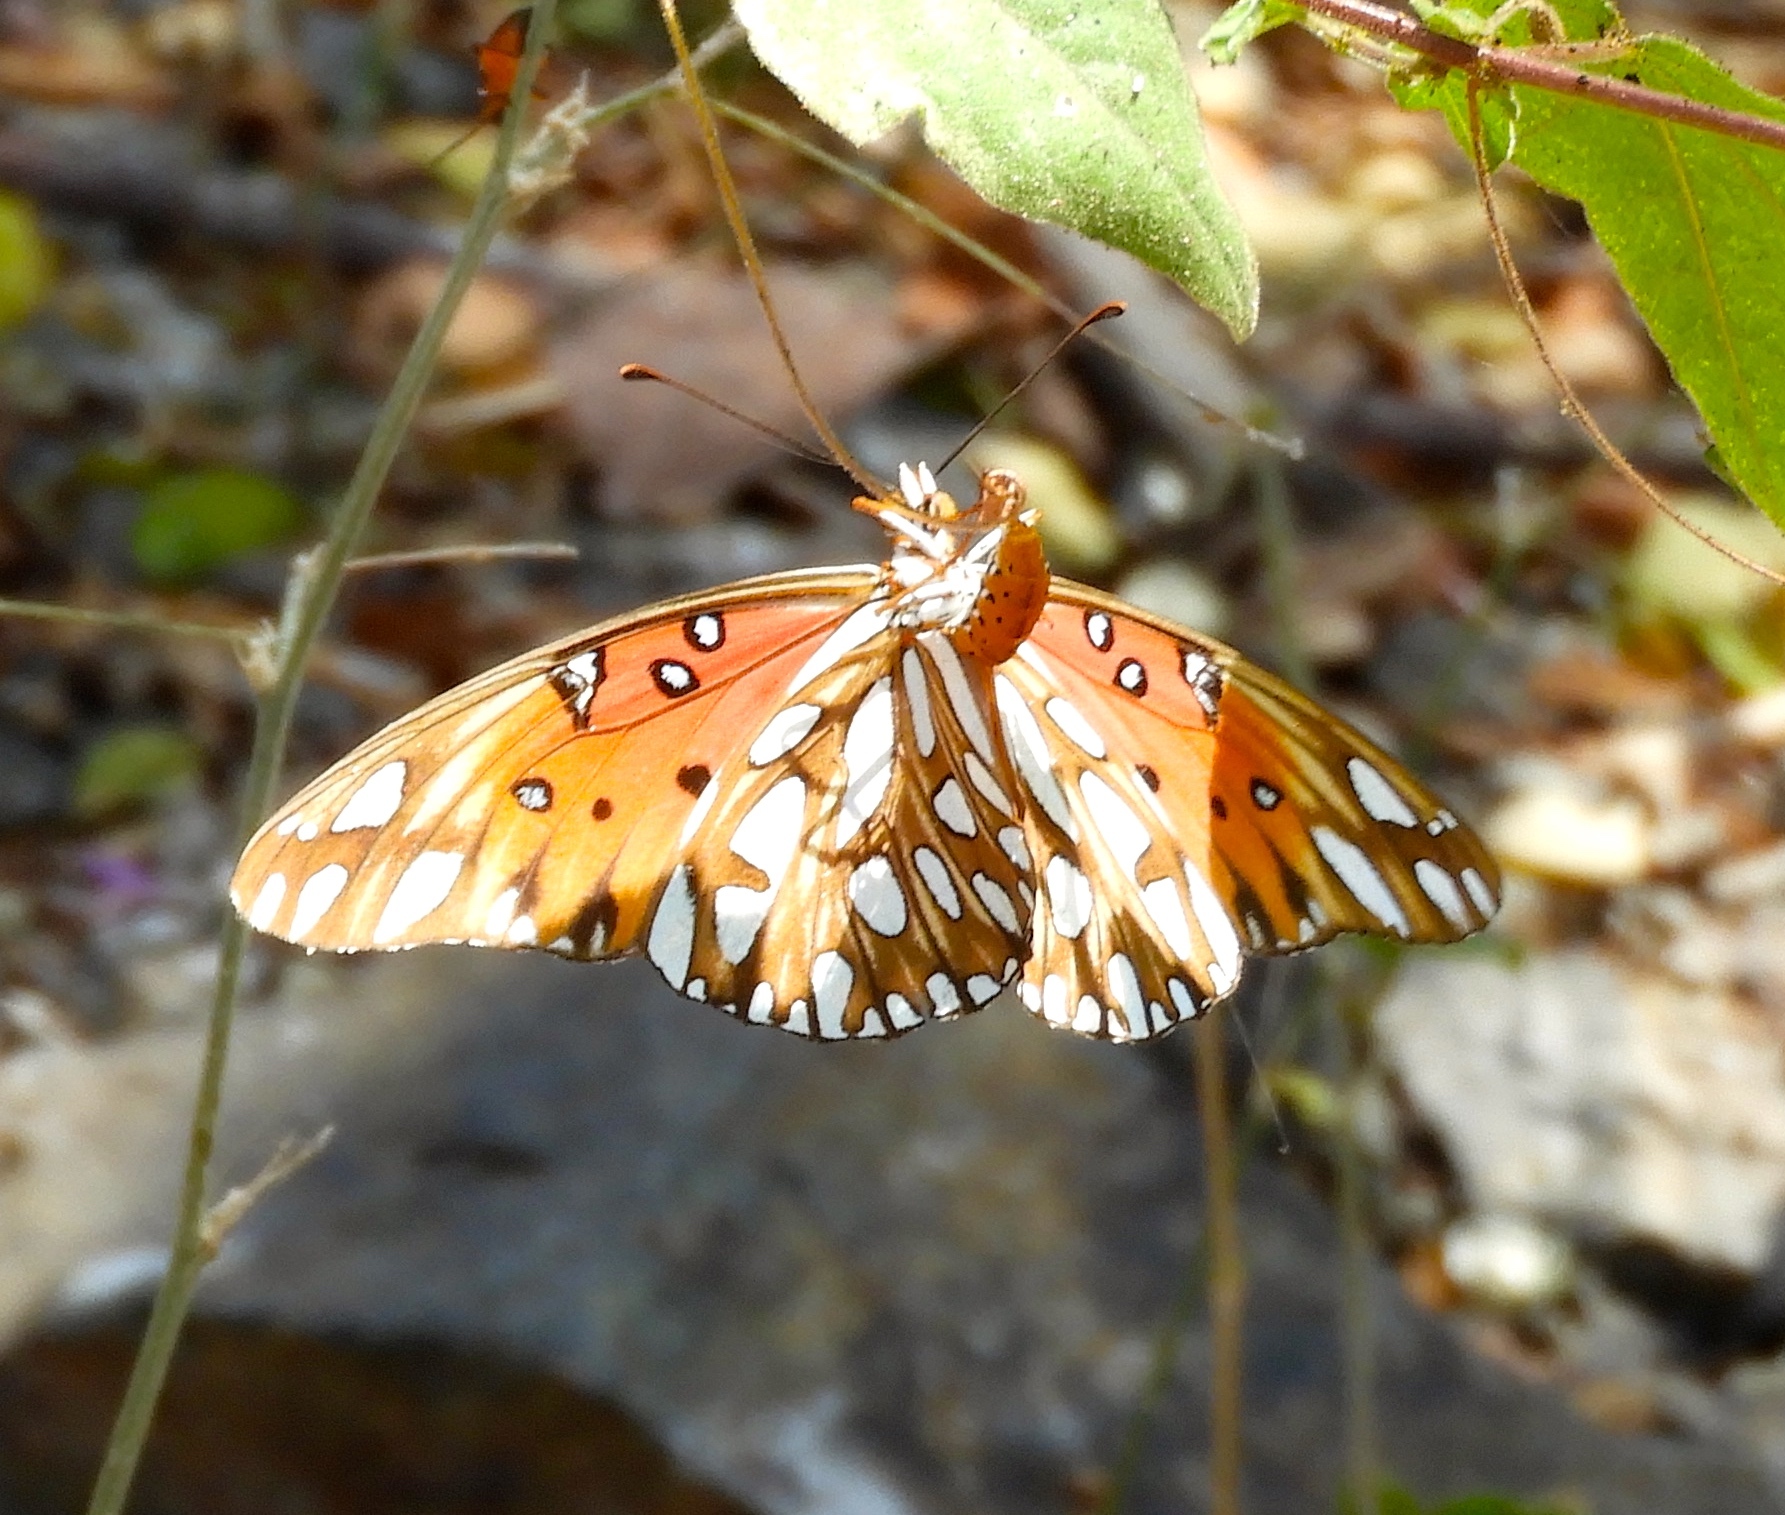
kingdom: Animalia
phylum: Arthropoda
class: Insecta
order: Lepidoptera
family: Nymphalidae
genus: Dione
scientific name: Dione vanillae
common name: Gulf fritillary
